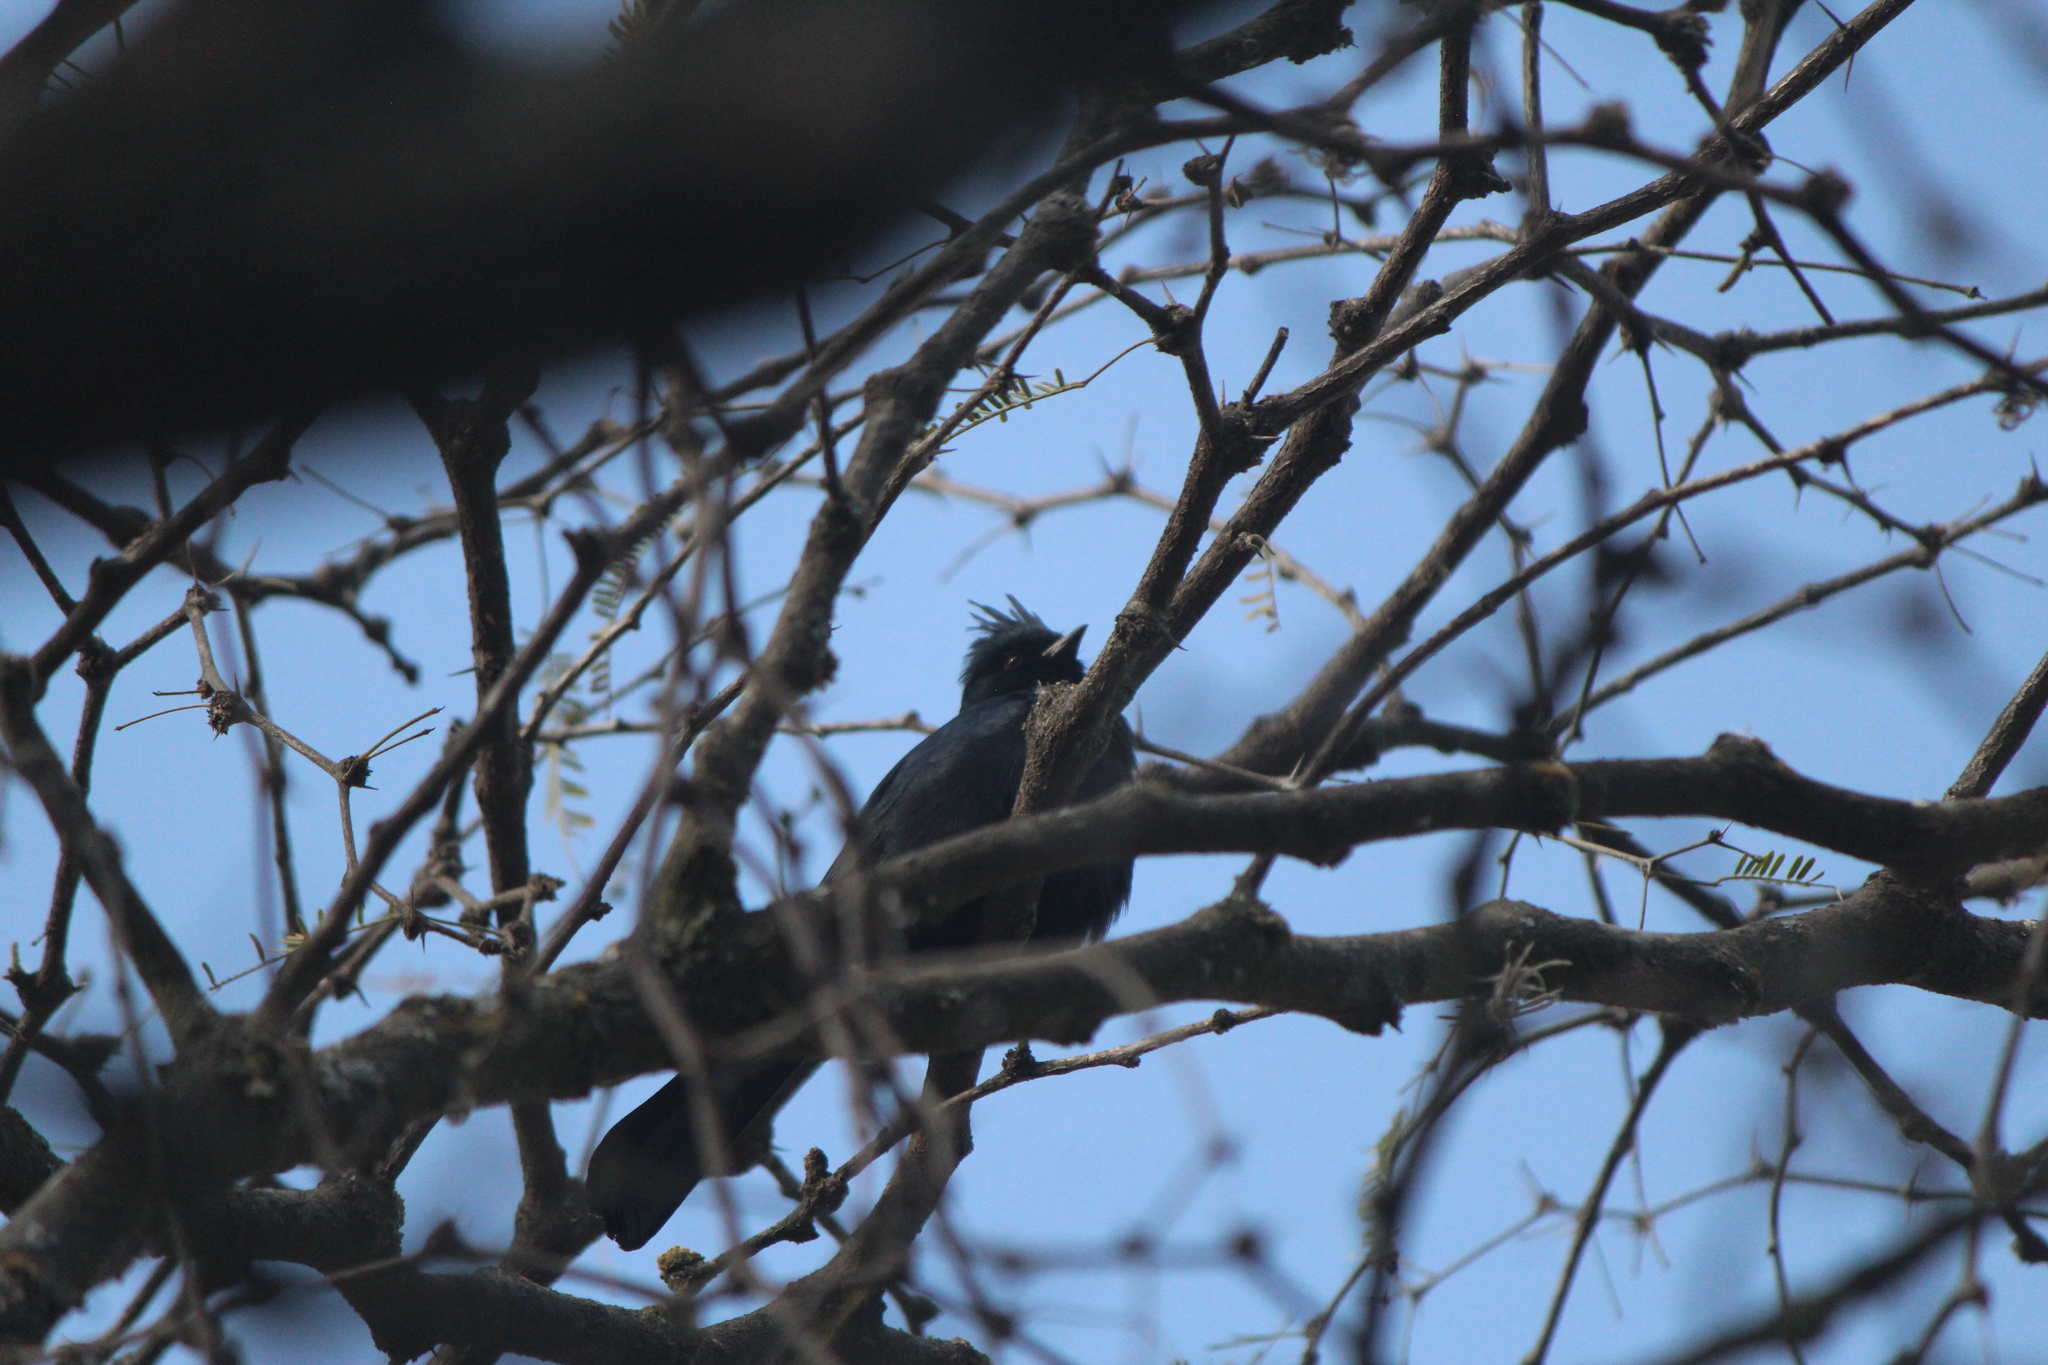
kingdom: Animalia
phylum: Chordata
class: Aves
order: Passeriformes
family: Ptilogonatidae
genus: Phainopepla
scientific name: Phainopepla nitens
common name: Phainopepla
